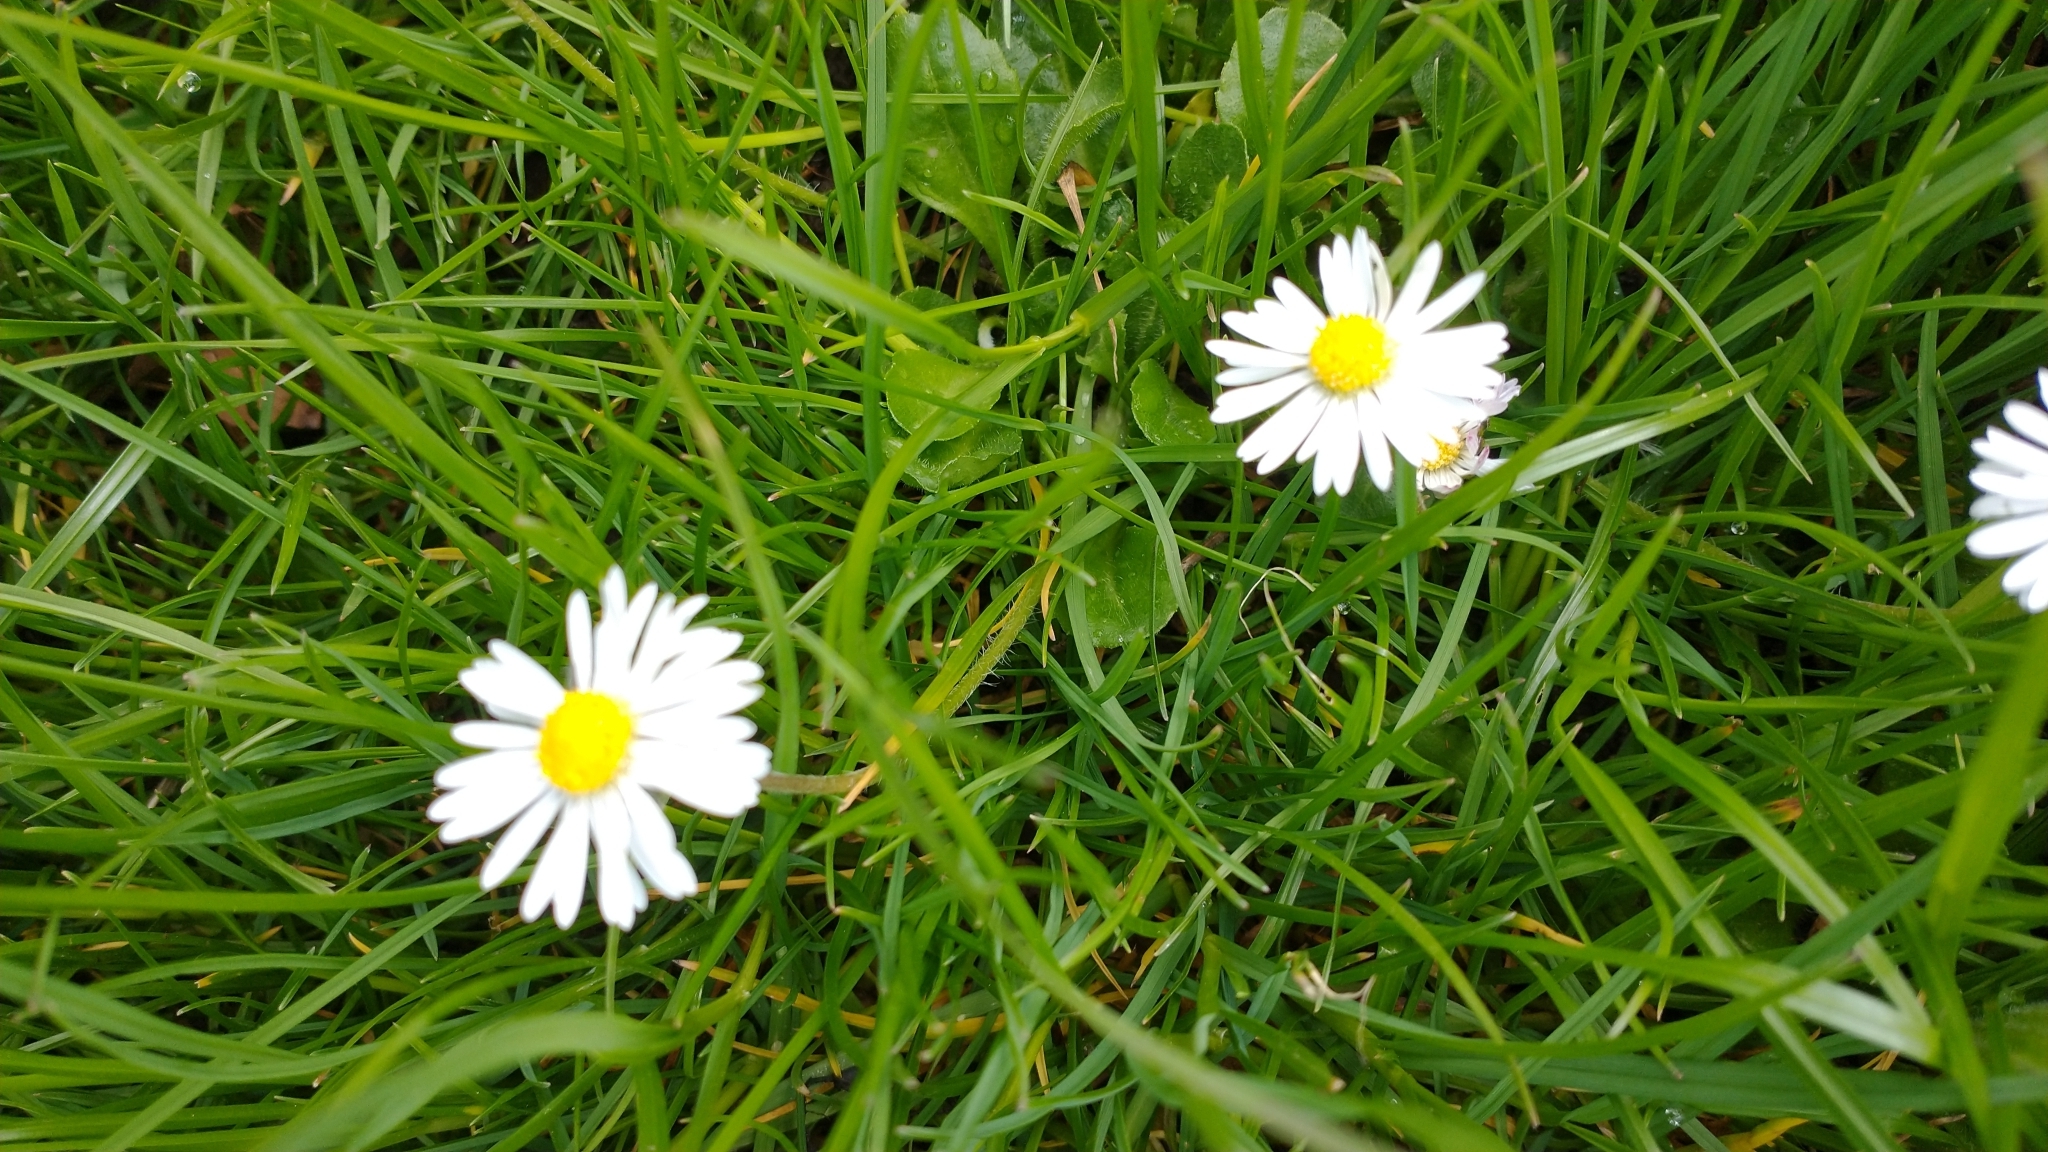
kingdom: Plantae
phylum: Tracheophyta
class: Magnoliopsida
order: Asterales
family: Asteraceae
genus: Bellis
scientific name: Bellis perennis
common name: Lawndaisy
